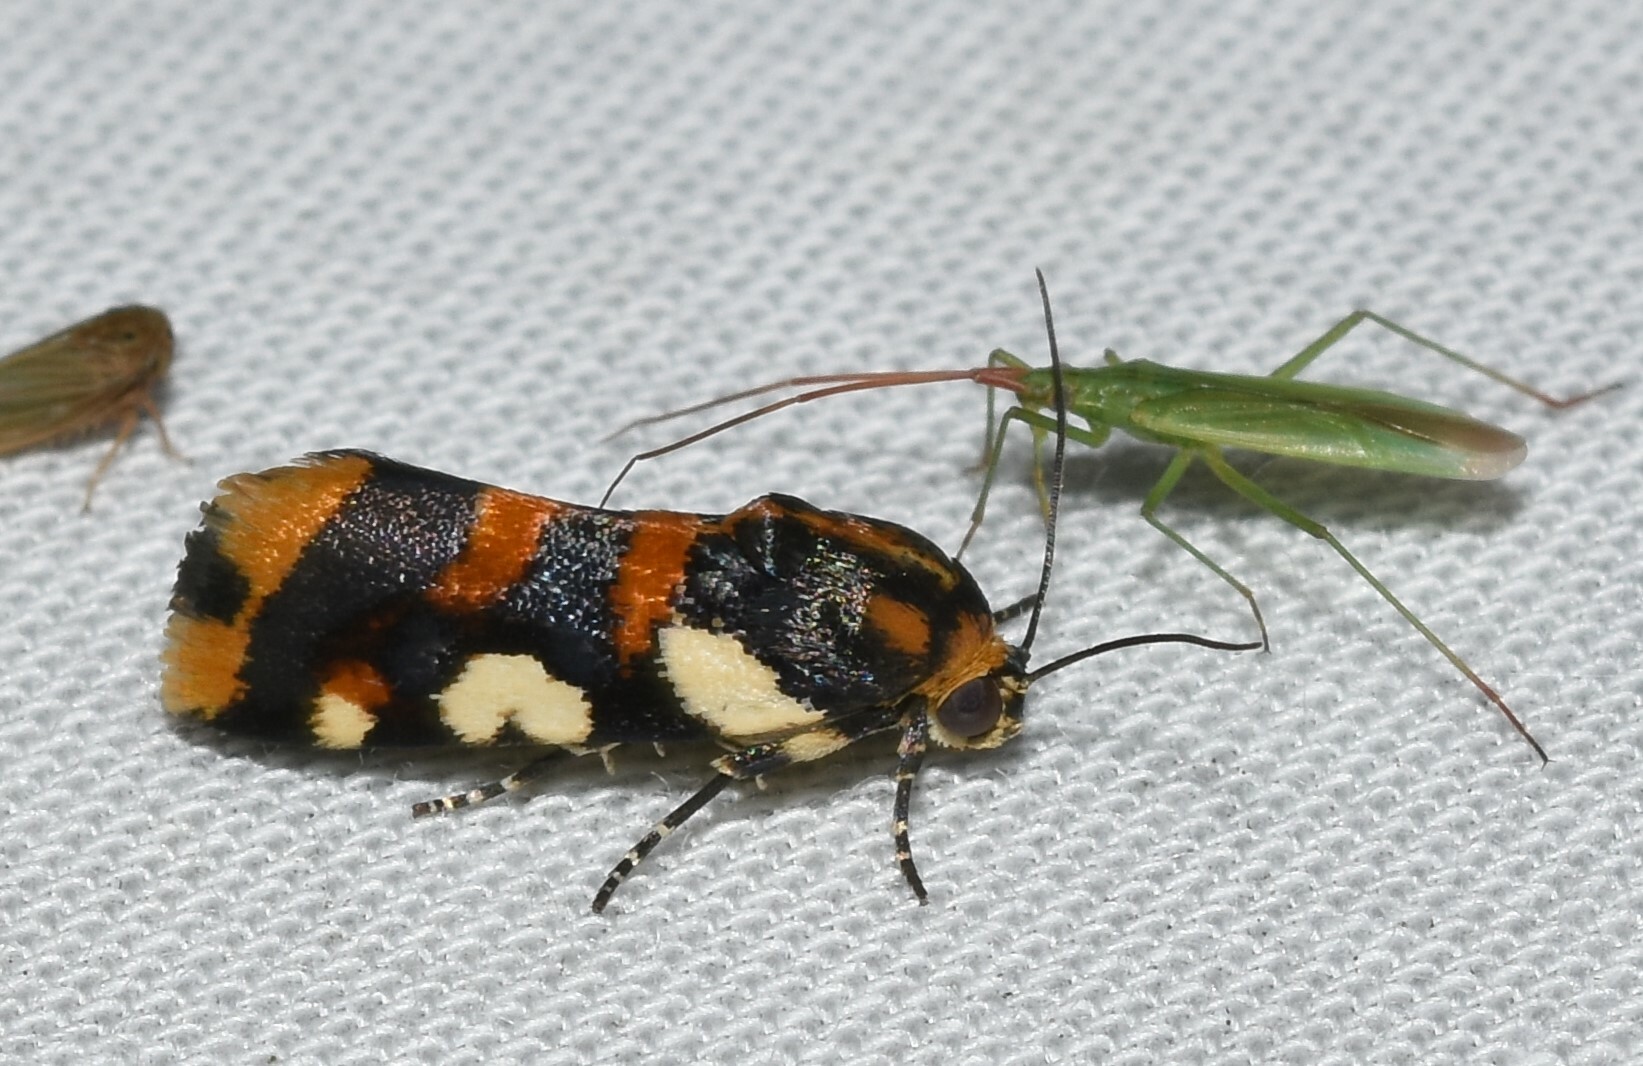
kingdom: Animalia
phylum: Arthropoda
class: Insecta
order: Lepidoptera
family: Noctuidae
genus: Acontia
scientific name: Acontia dama
